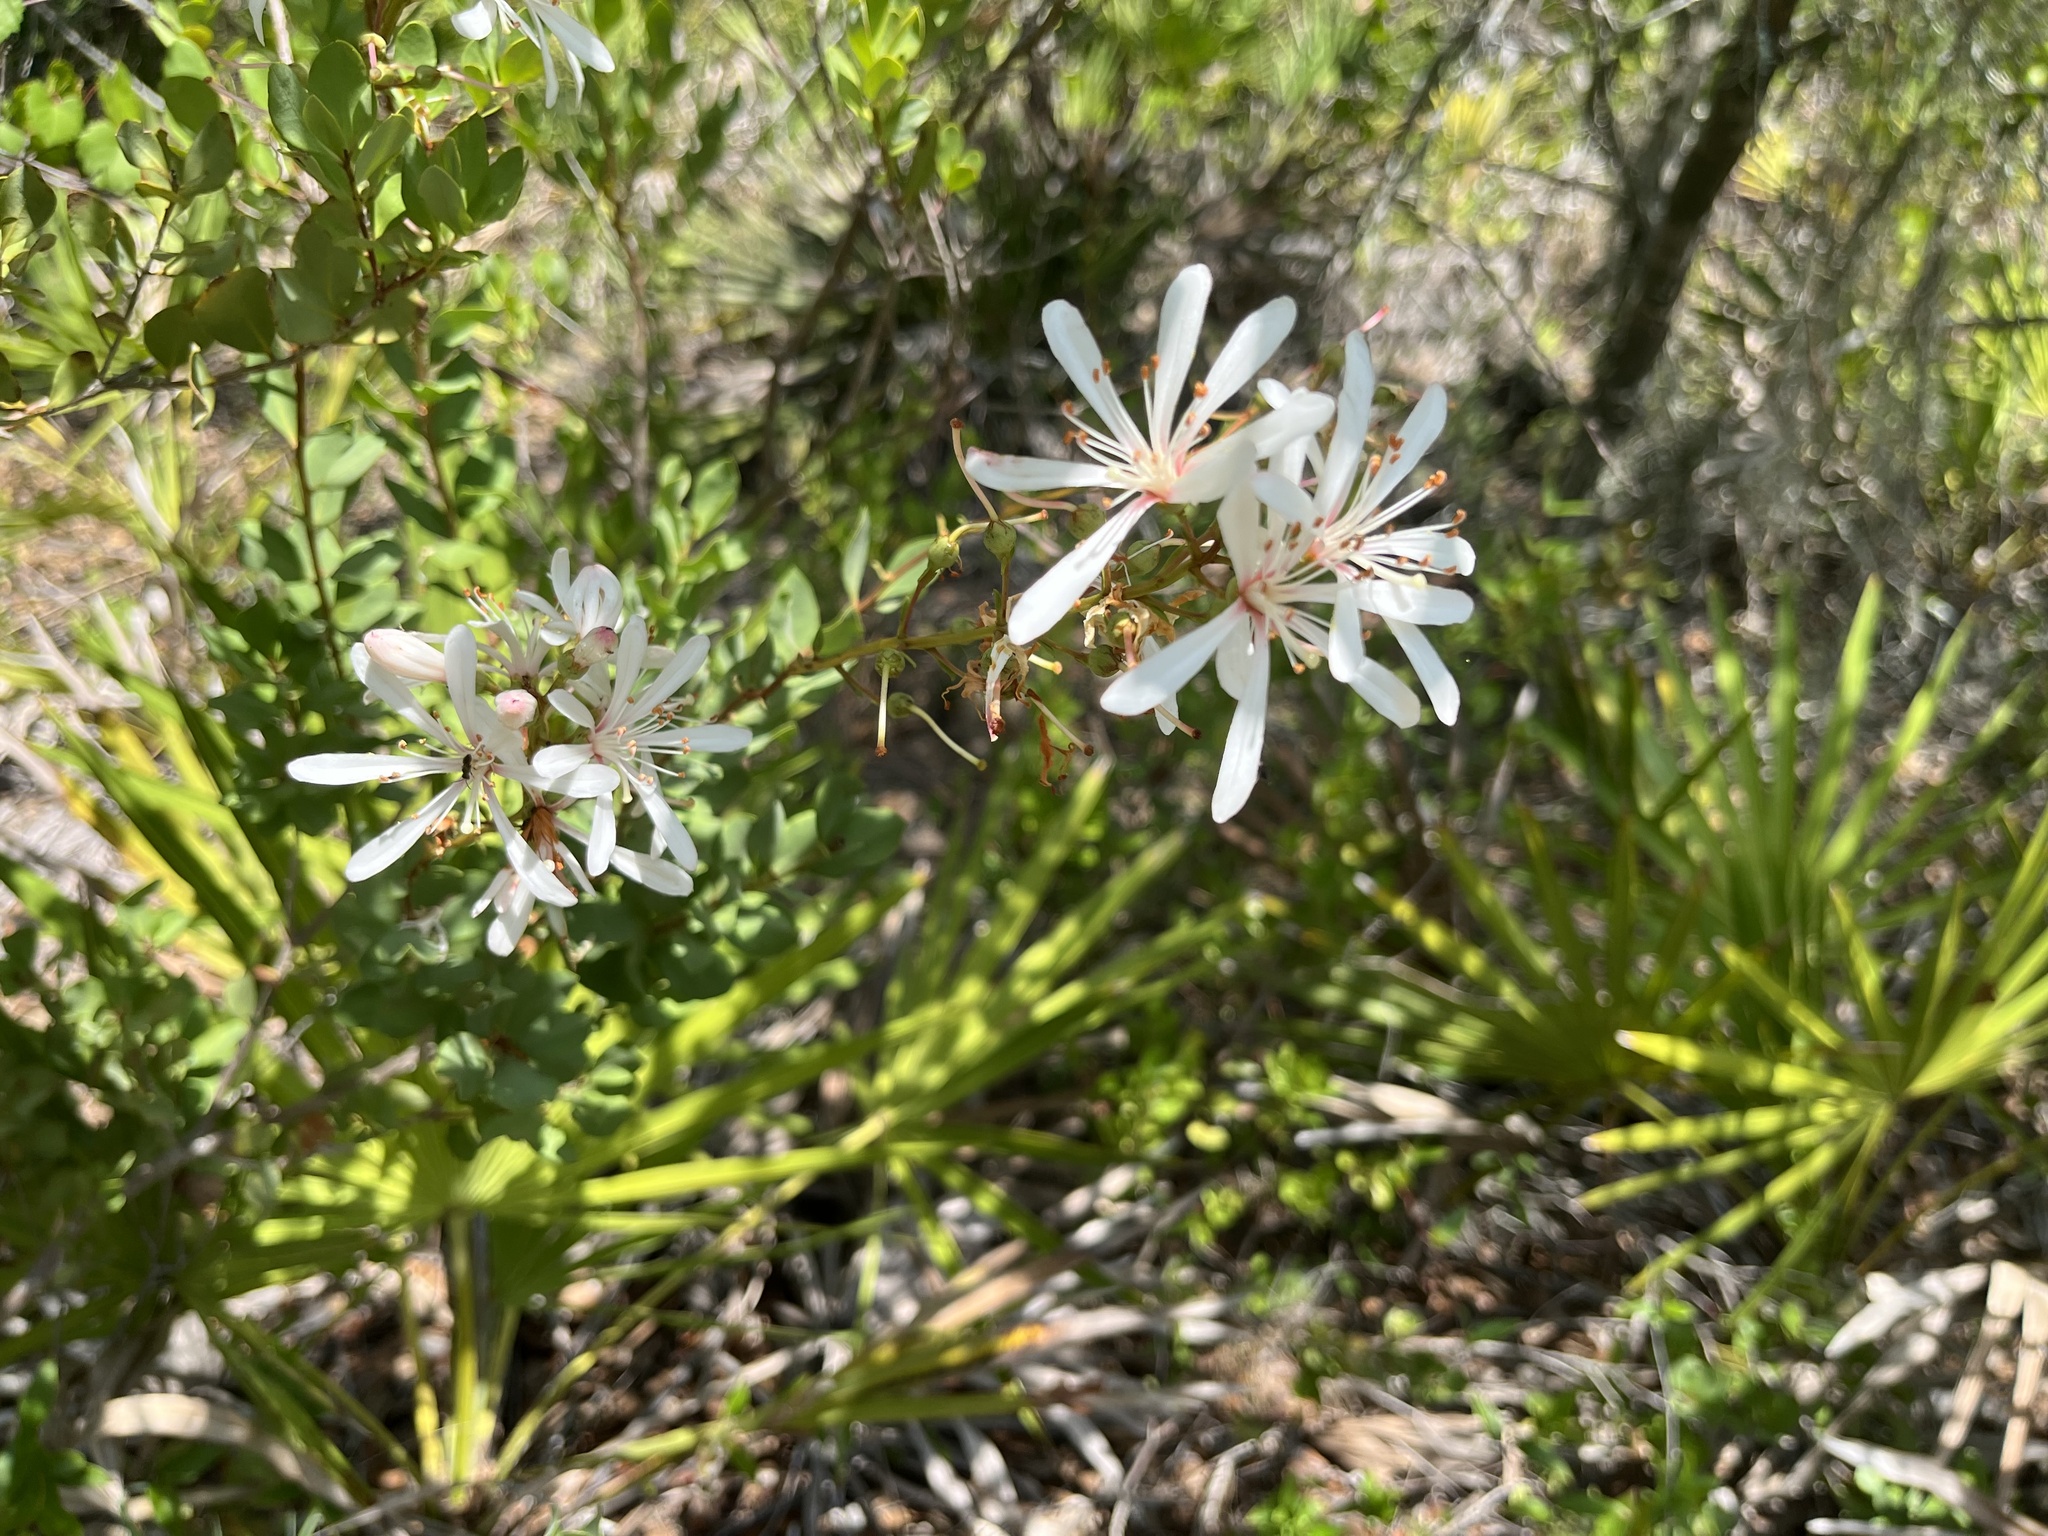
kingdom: Plantae
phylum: Tracheophyta
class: Magnoliopsida
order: Ericales
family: Ericaceae
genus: Bejaria
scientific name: Bejaria racemosa
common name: Tarflower
